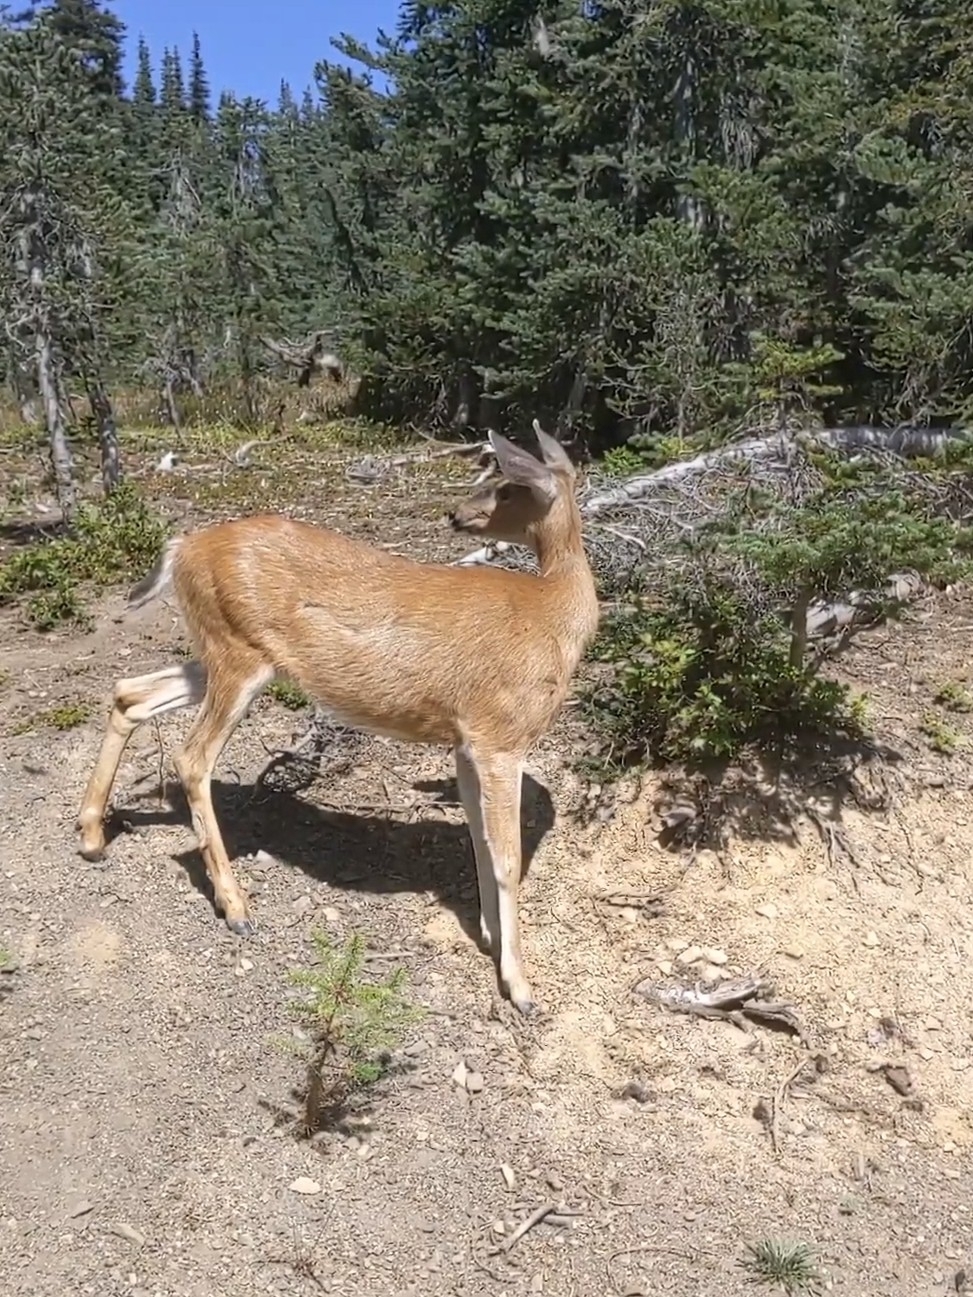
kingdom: Animalia
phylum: Chordata
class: Mammalia
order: Artiodactyla
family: Cervidae
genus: Odocoileus
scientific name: Odocoileus hemionus
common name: Mule deer
